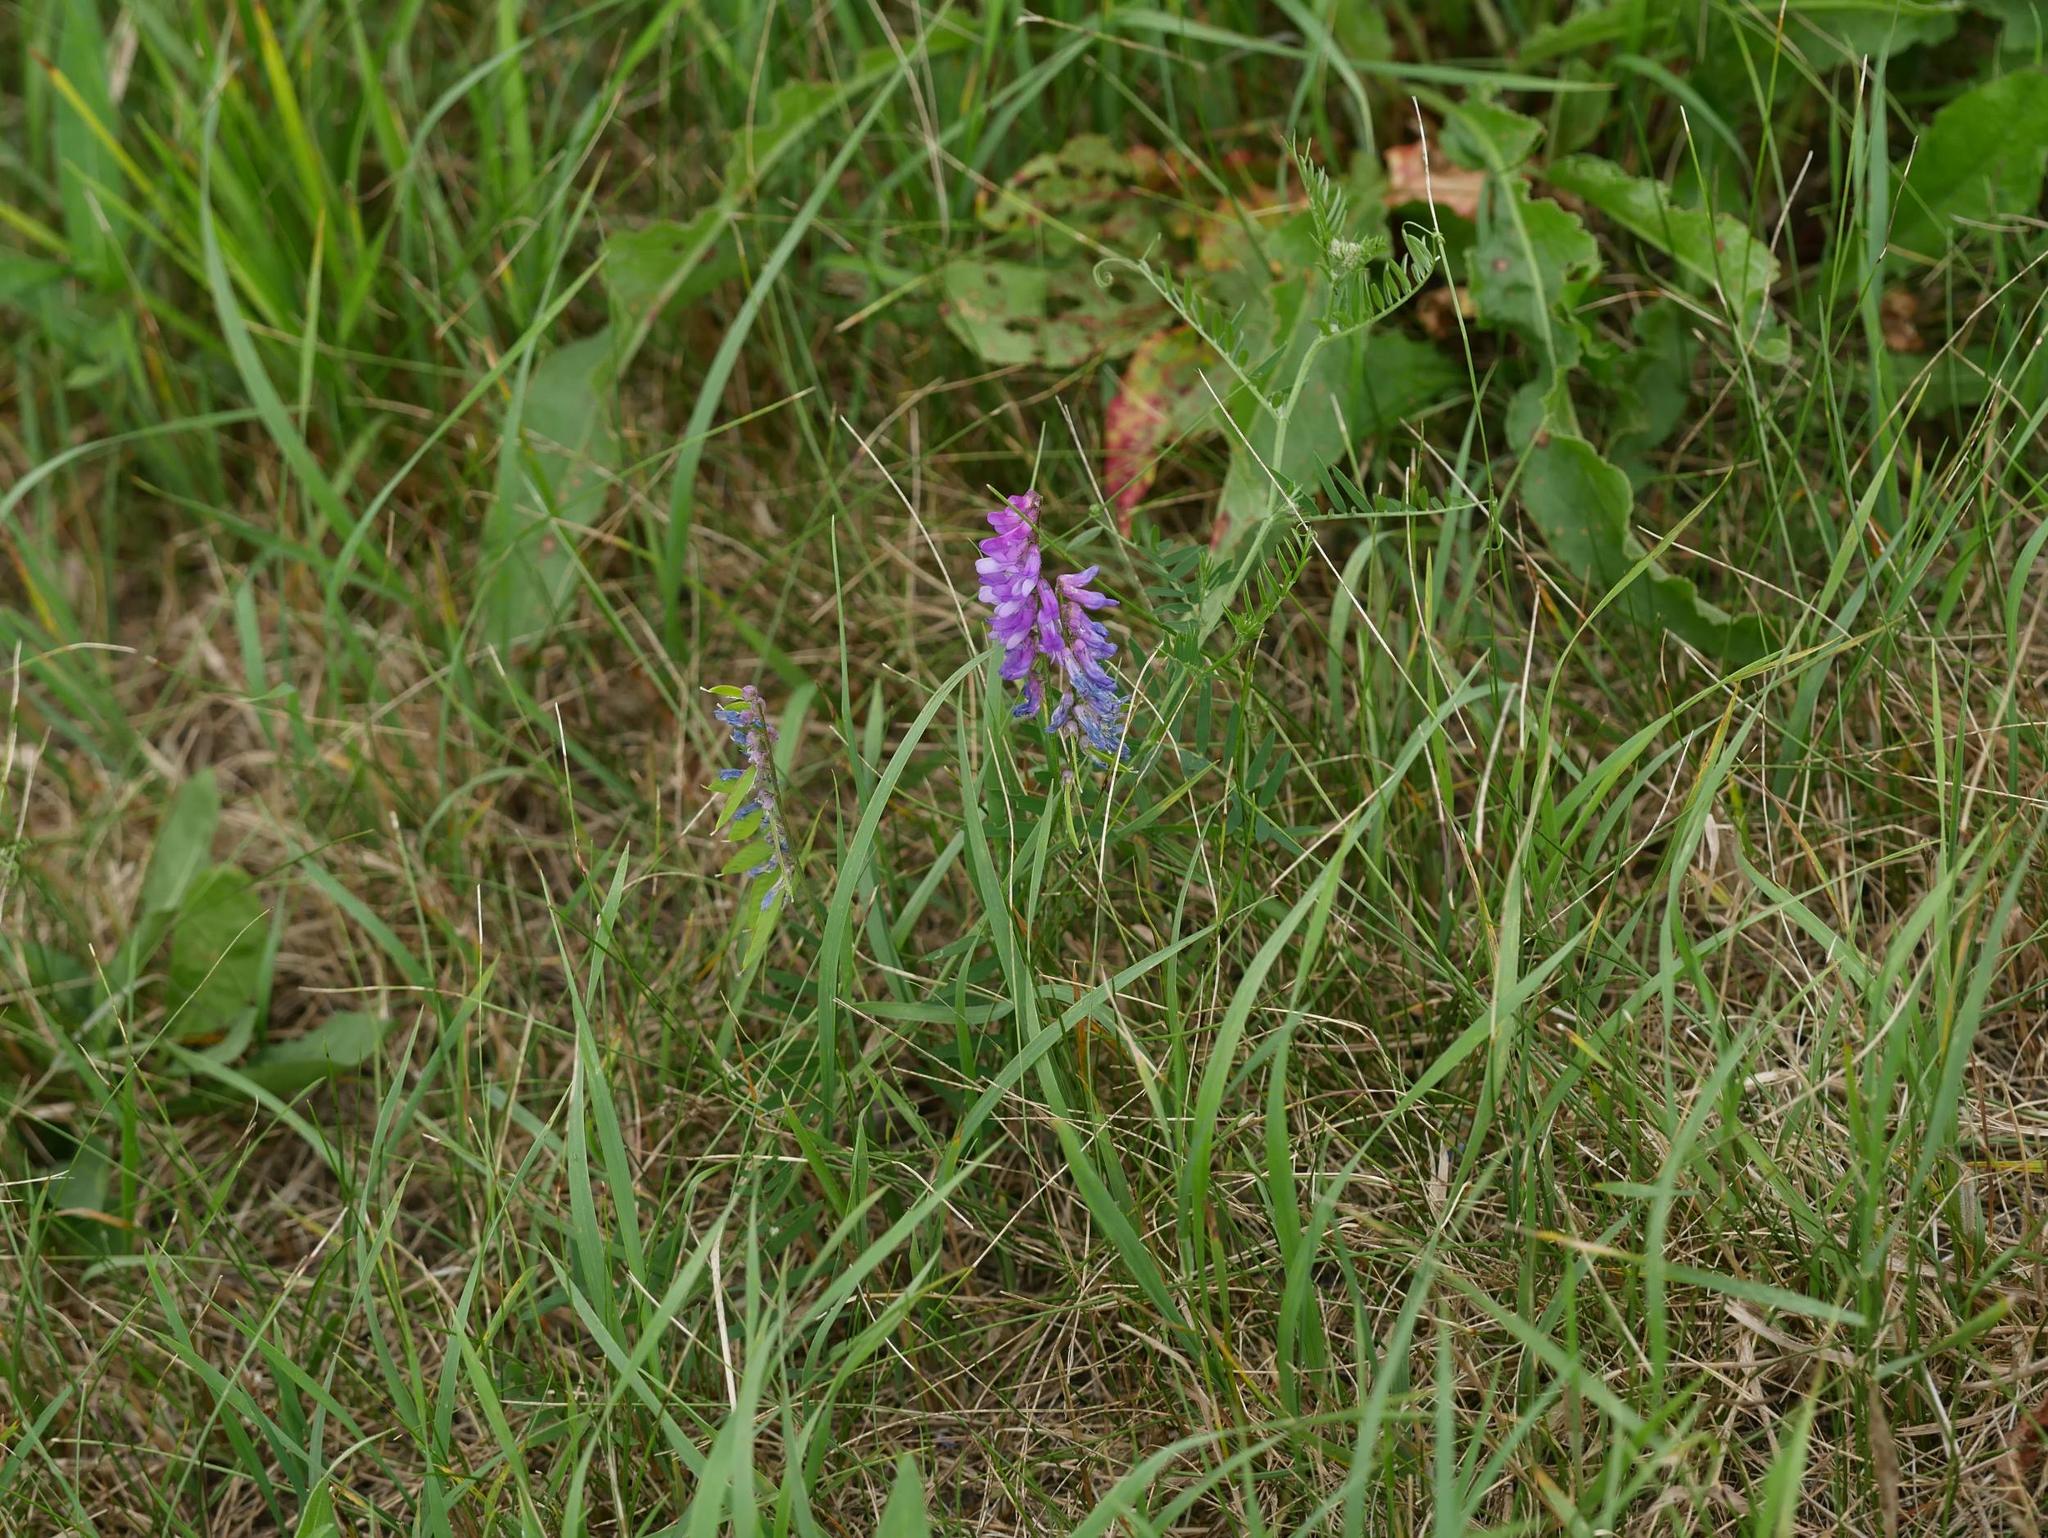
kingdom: Plantae
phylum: Tracheophyta
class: Magnoliopsida
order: Fabales
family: Fabaceae
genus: Vicia
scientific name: Vicia cracca
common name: Bird vetch
